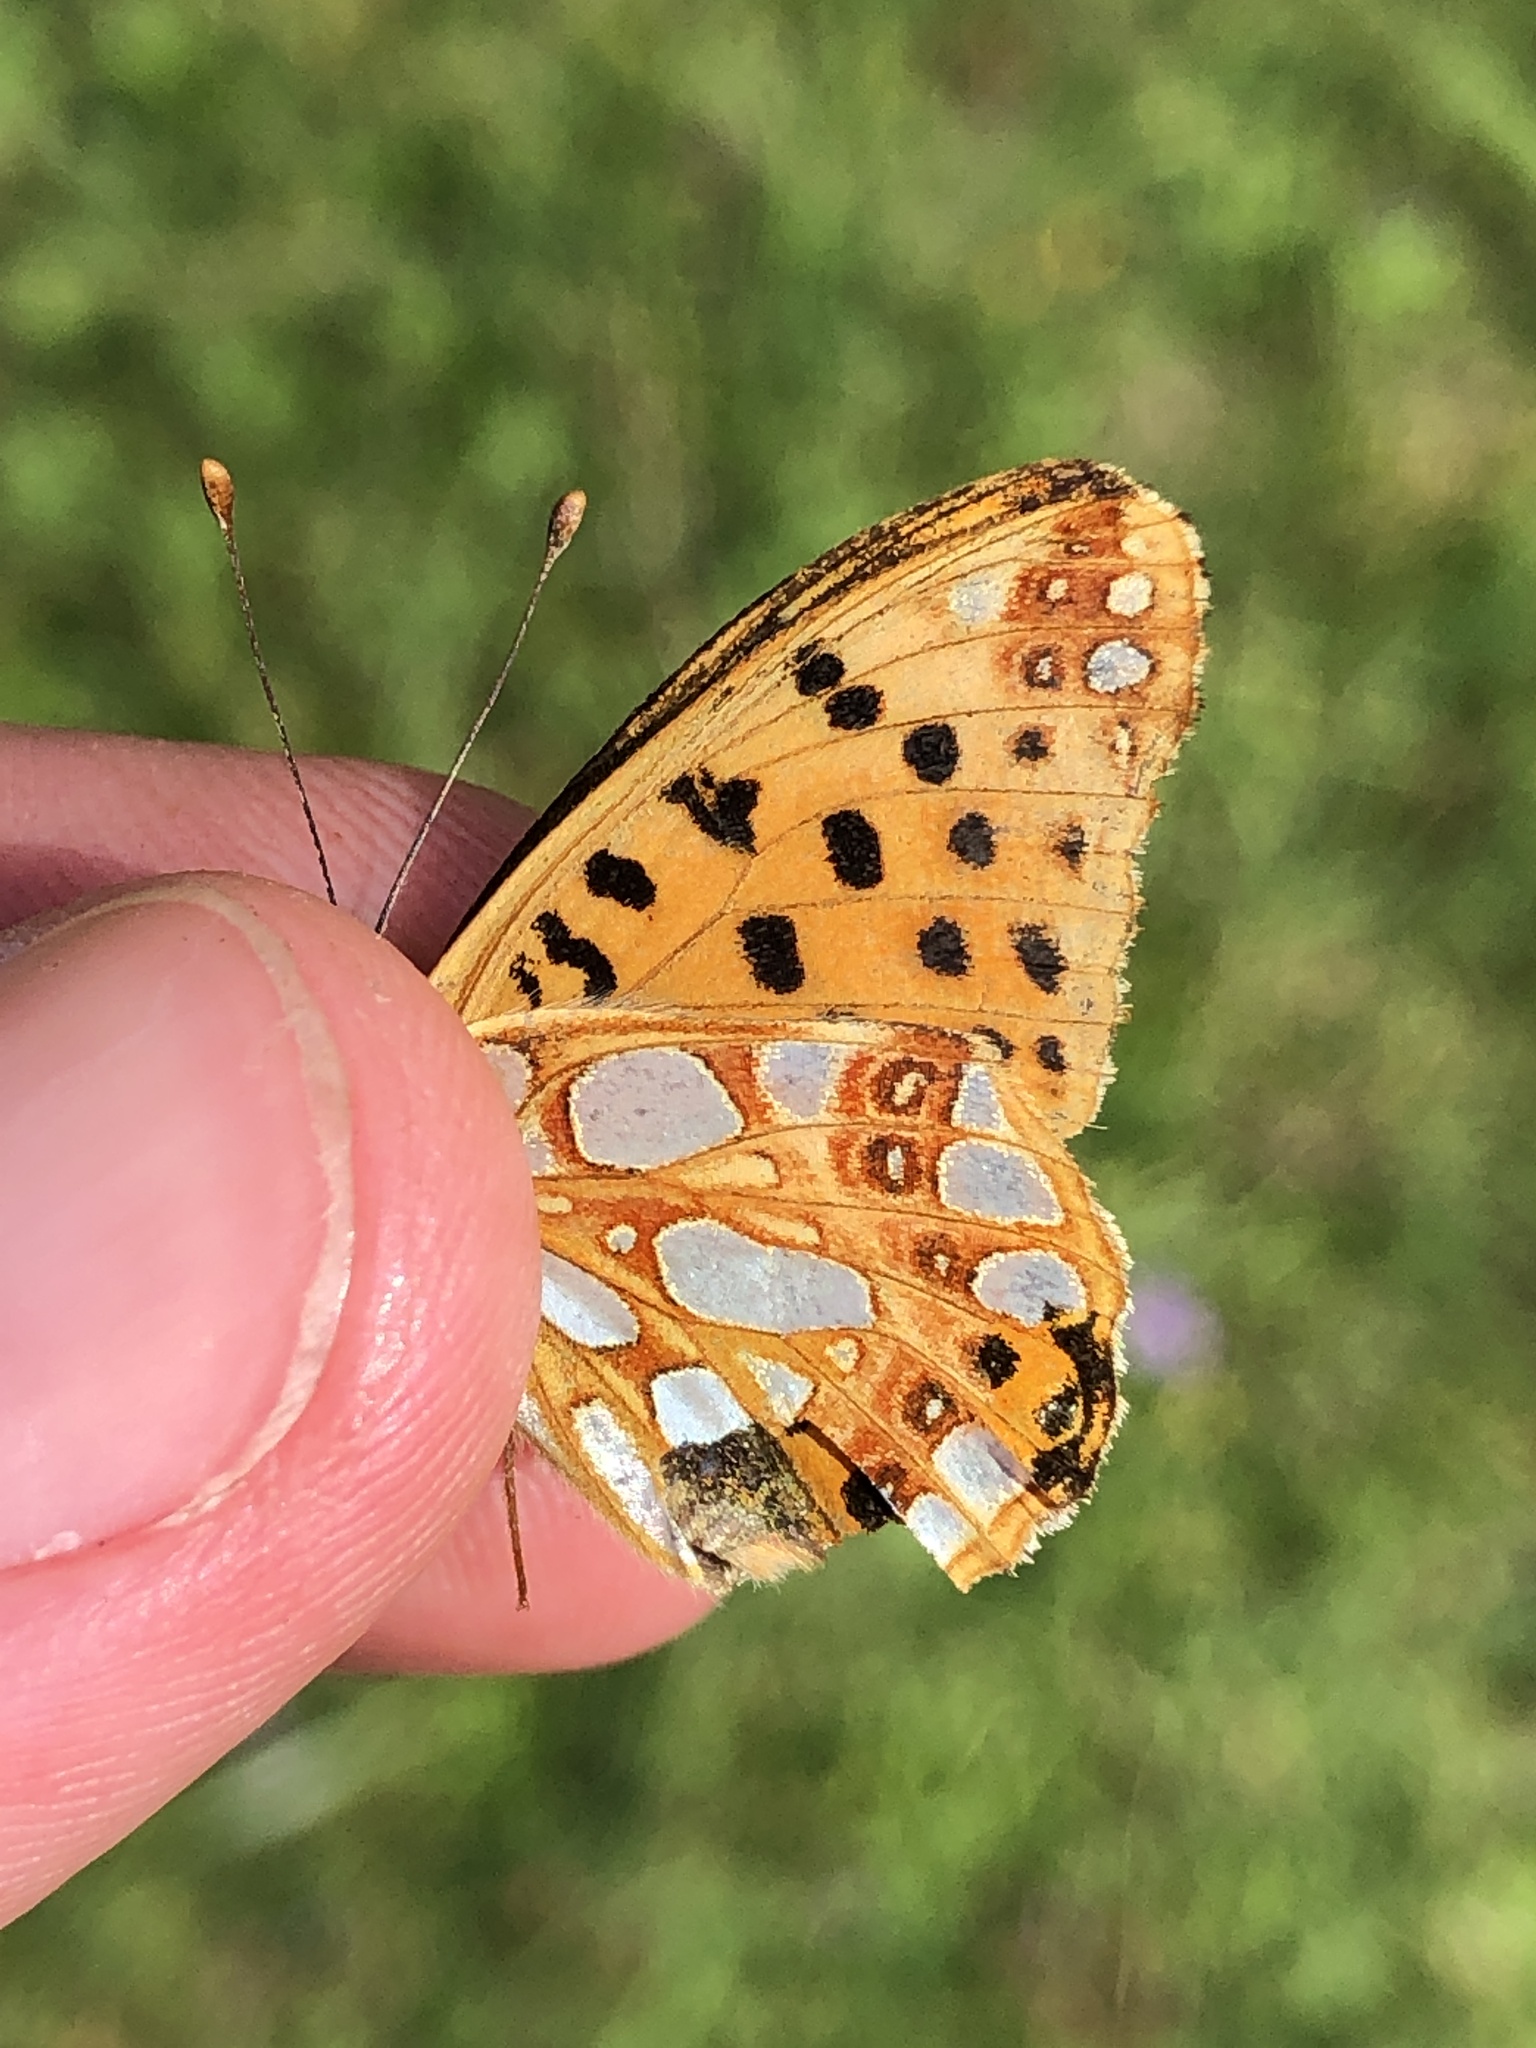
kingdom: Animalia
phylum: Arthropoda
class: Insecta
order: Lepidoptera
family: Nymphalidae
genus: Issoria
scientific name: Issoria lathonia
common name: Queen of spain fritillary
